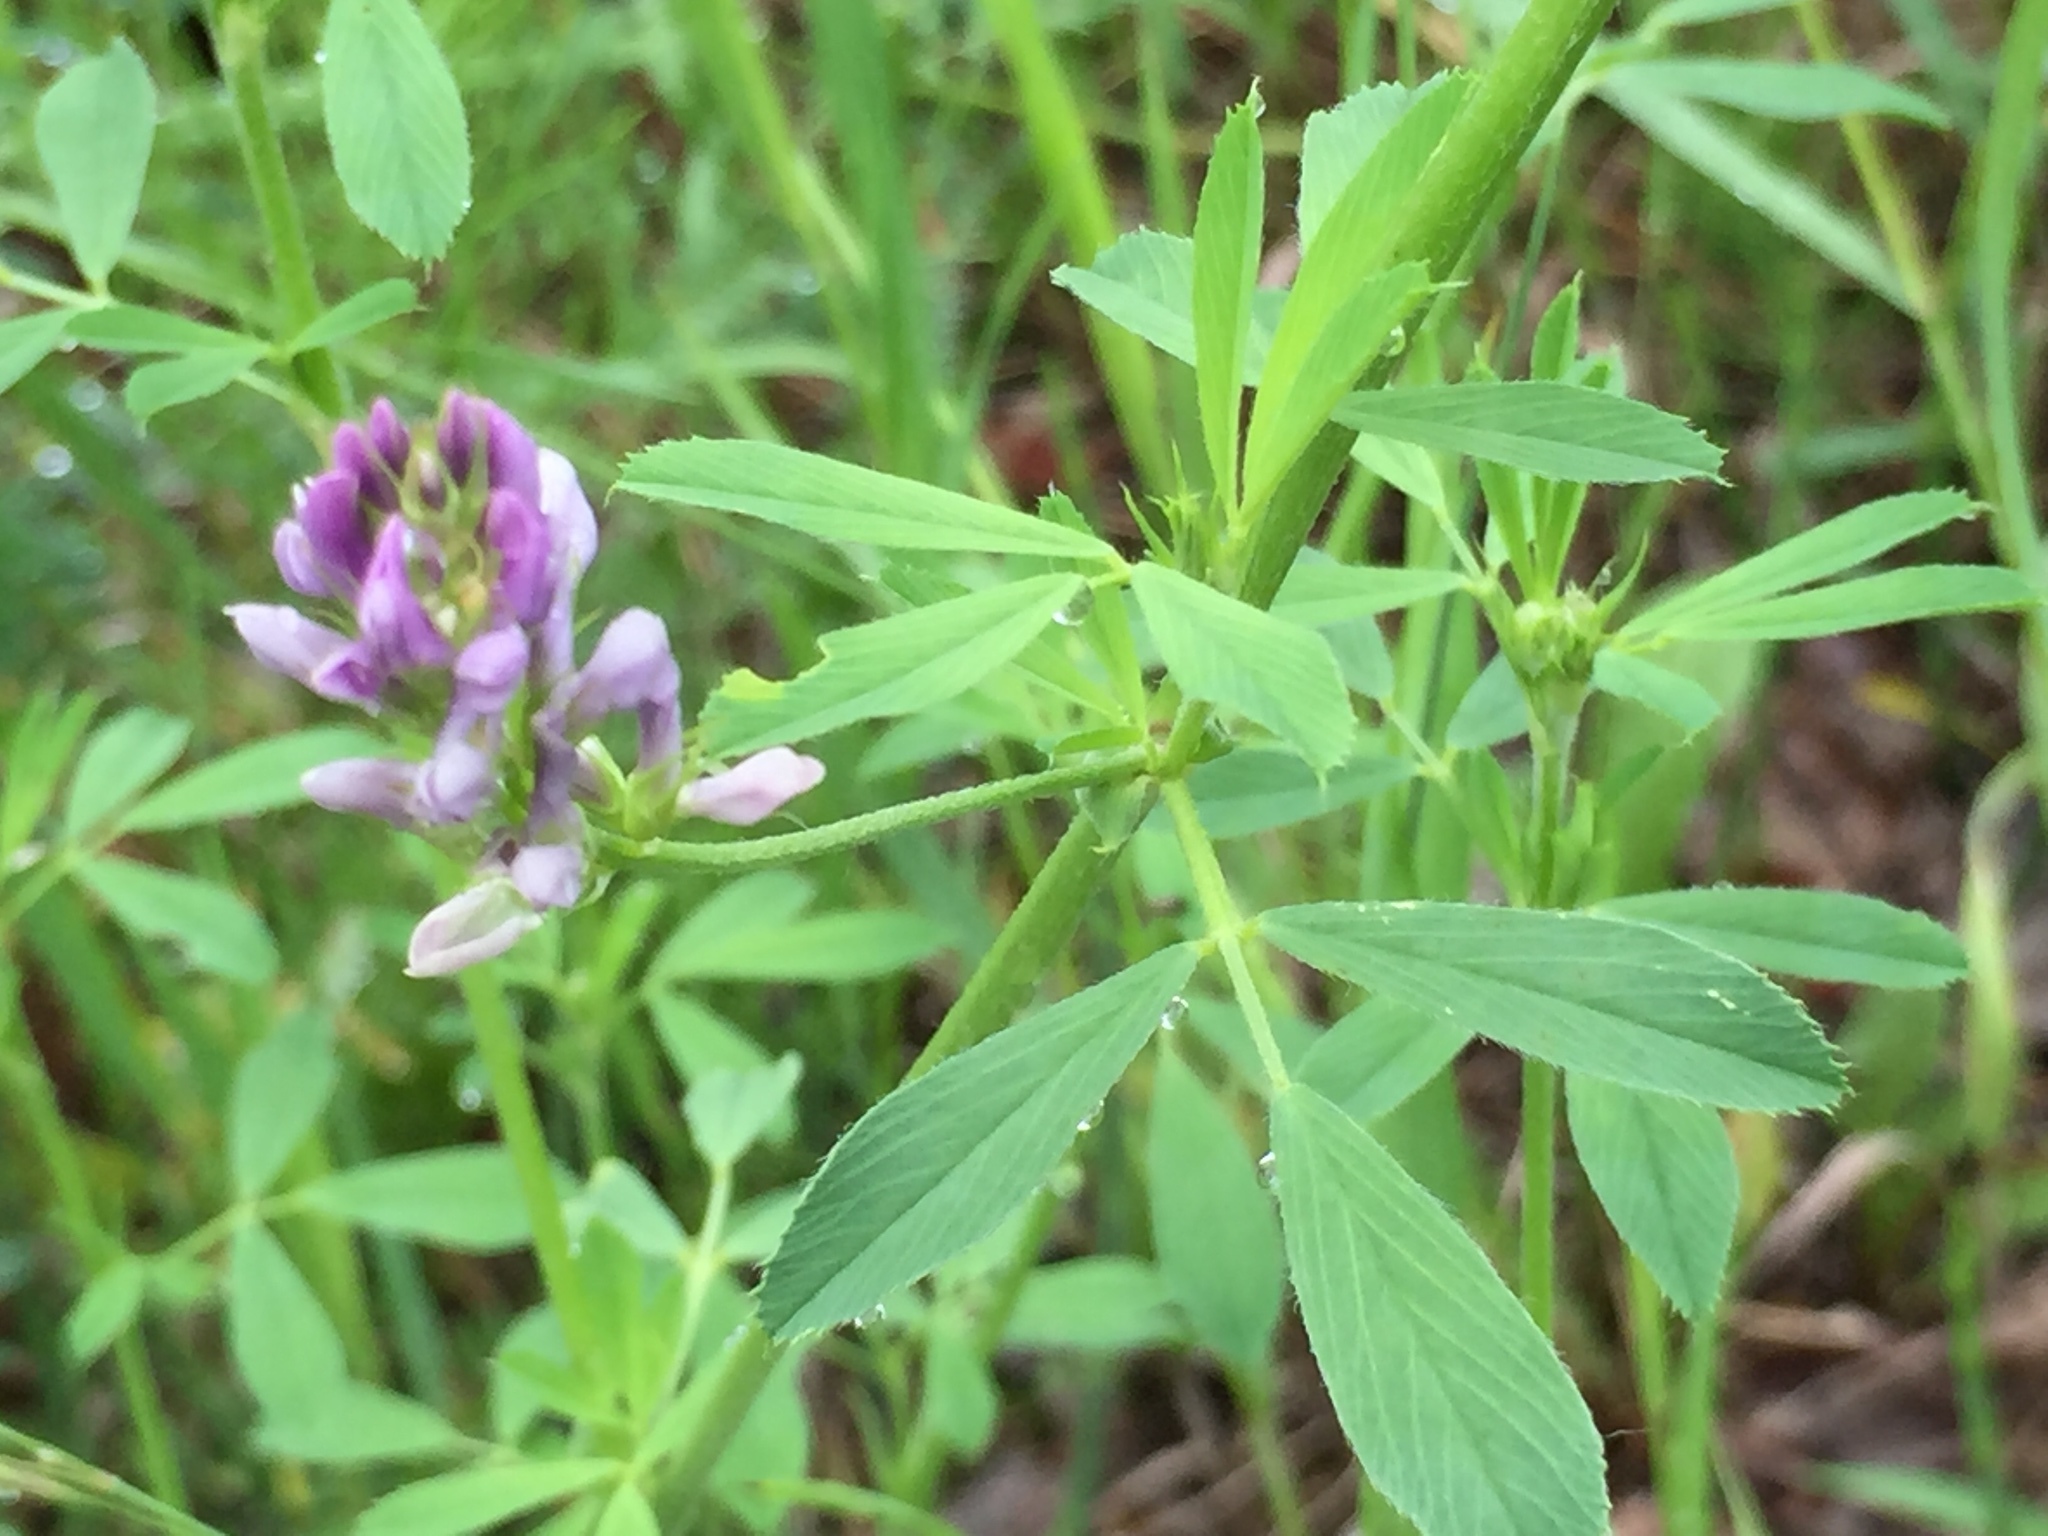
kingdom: Plantae
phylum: Tracheophyta
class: Magnoliopsida
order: Fabales
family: Fabaceae
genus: Medicago
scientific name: Medicago sativa
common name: Alfalfa
